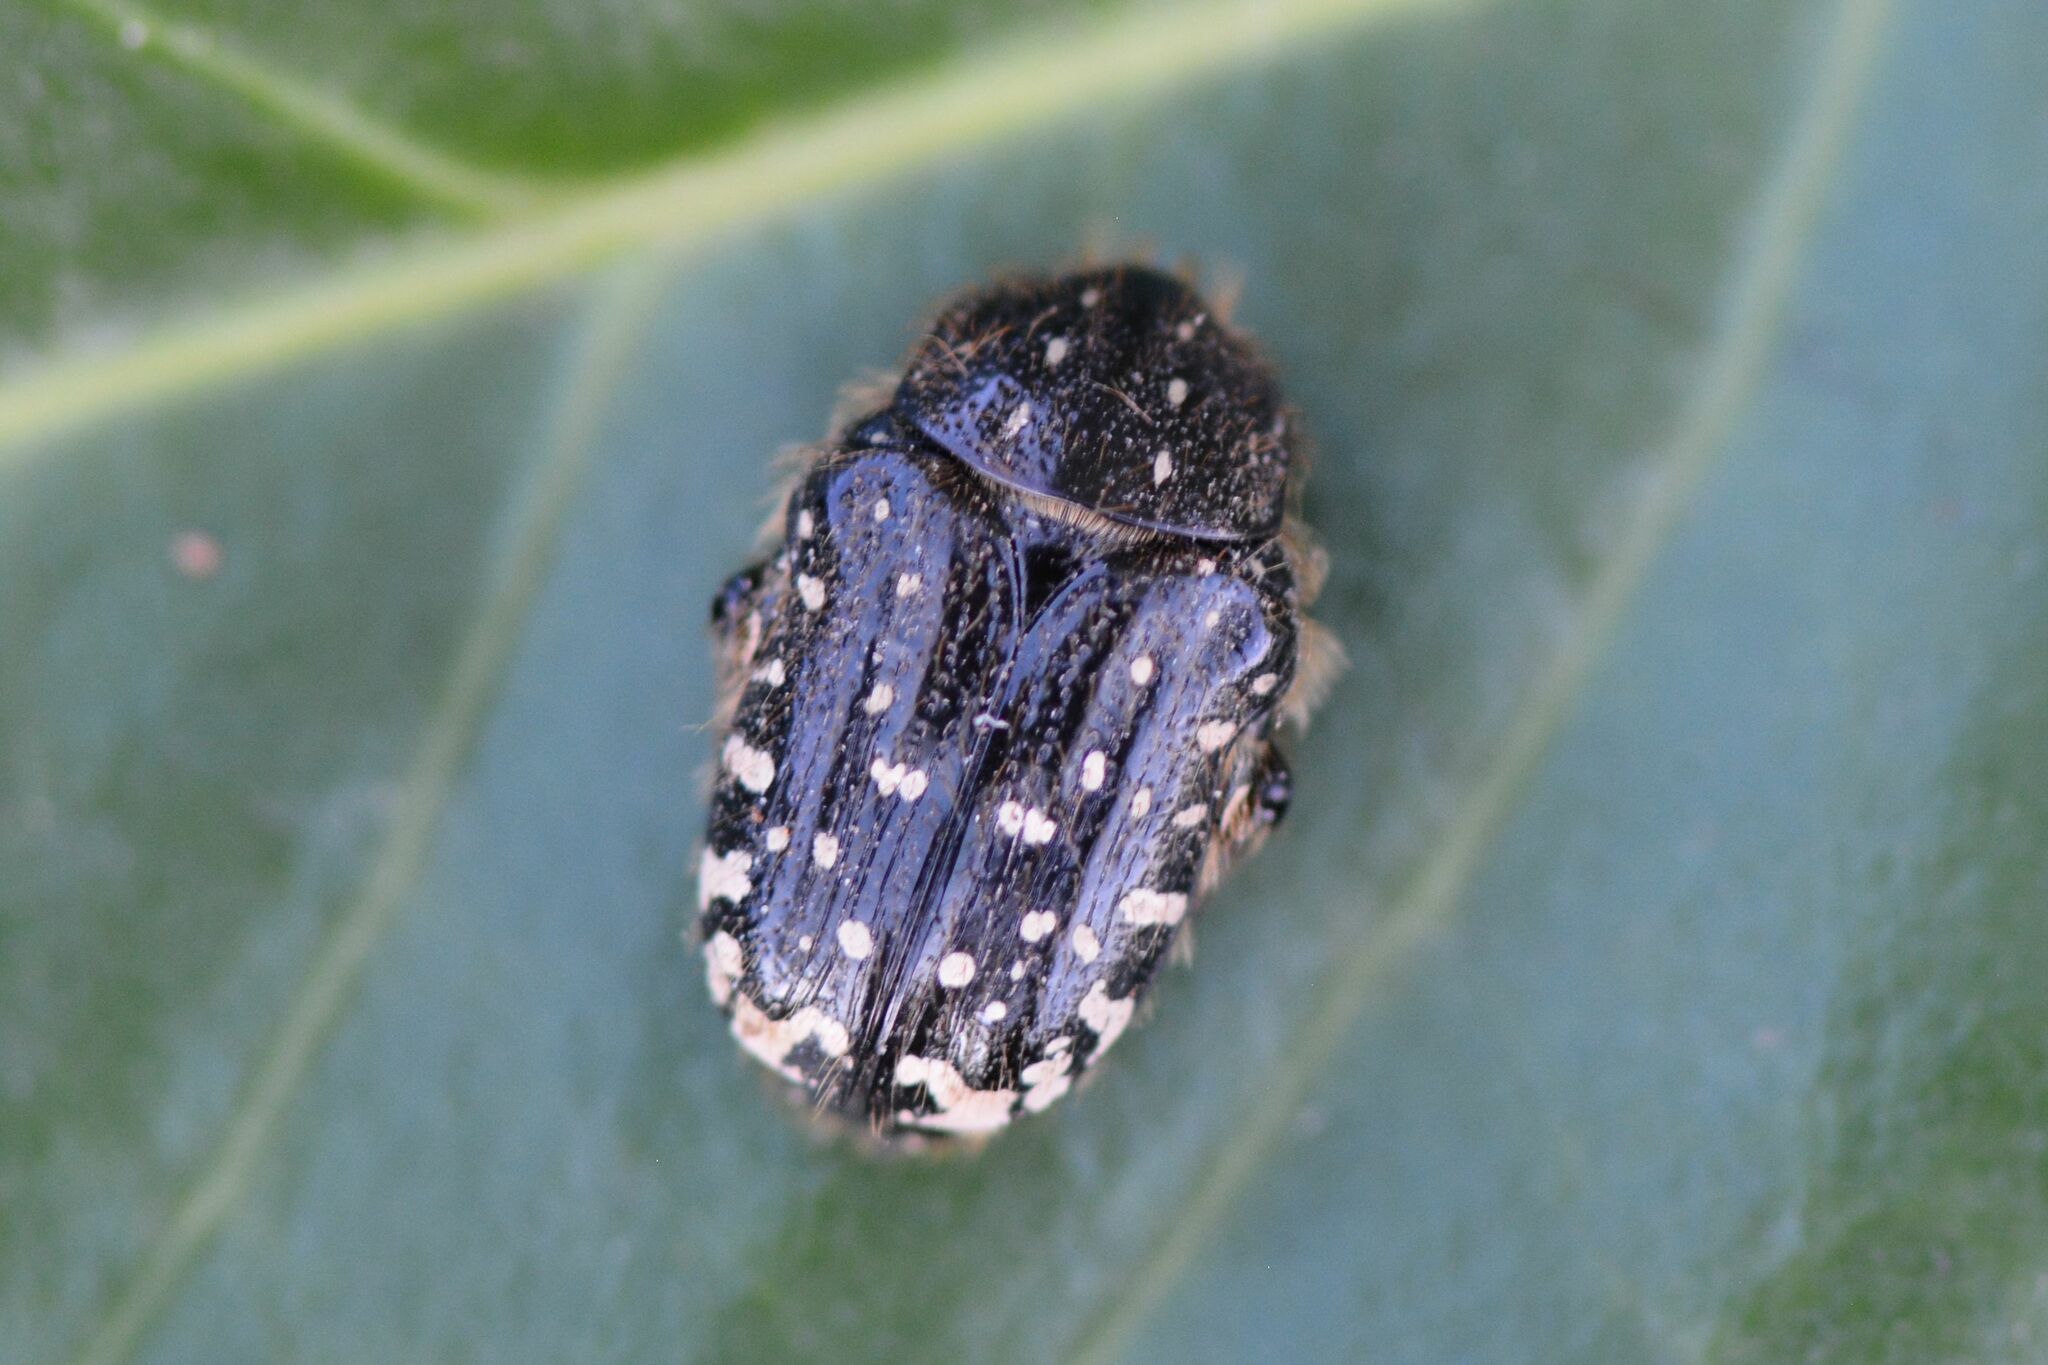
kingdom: Animalia
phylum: Arthropoda
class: Insecta
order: Coleoptera
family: Scarabaeidae
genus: Oxythyrea
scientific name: Oxythyrea funesta
